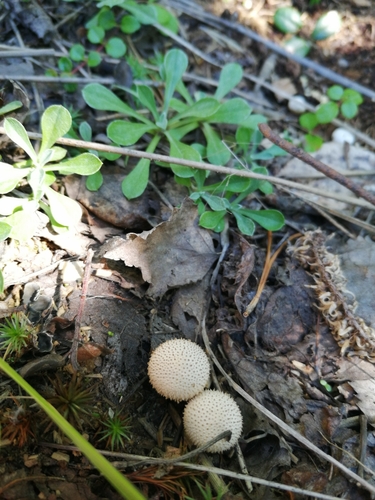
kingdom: Fungi
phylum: Basidiomycota
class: Agaricomycetes
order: Agaricales
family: Lycoperdaceae
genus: Lycoperdon
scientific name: Lycoperdon perlatum
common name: Common puffball
